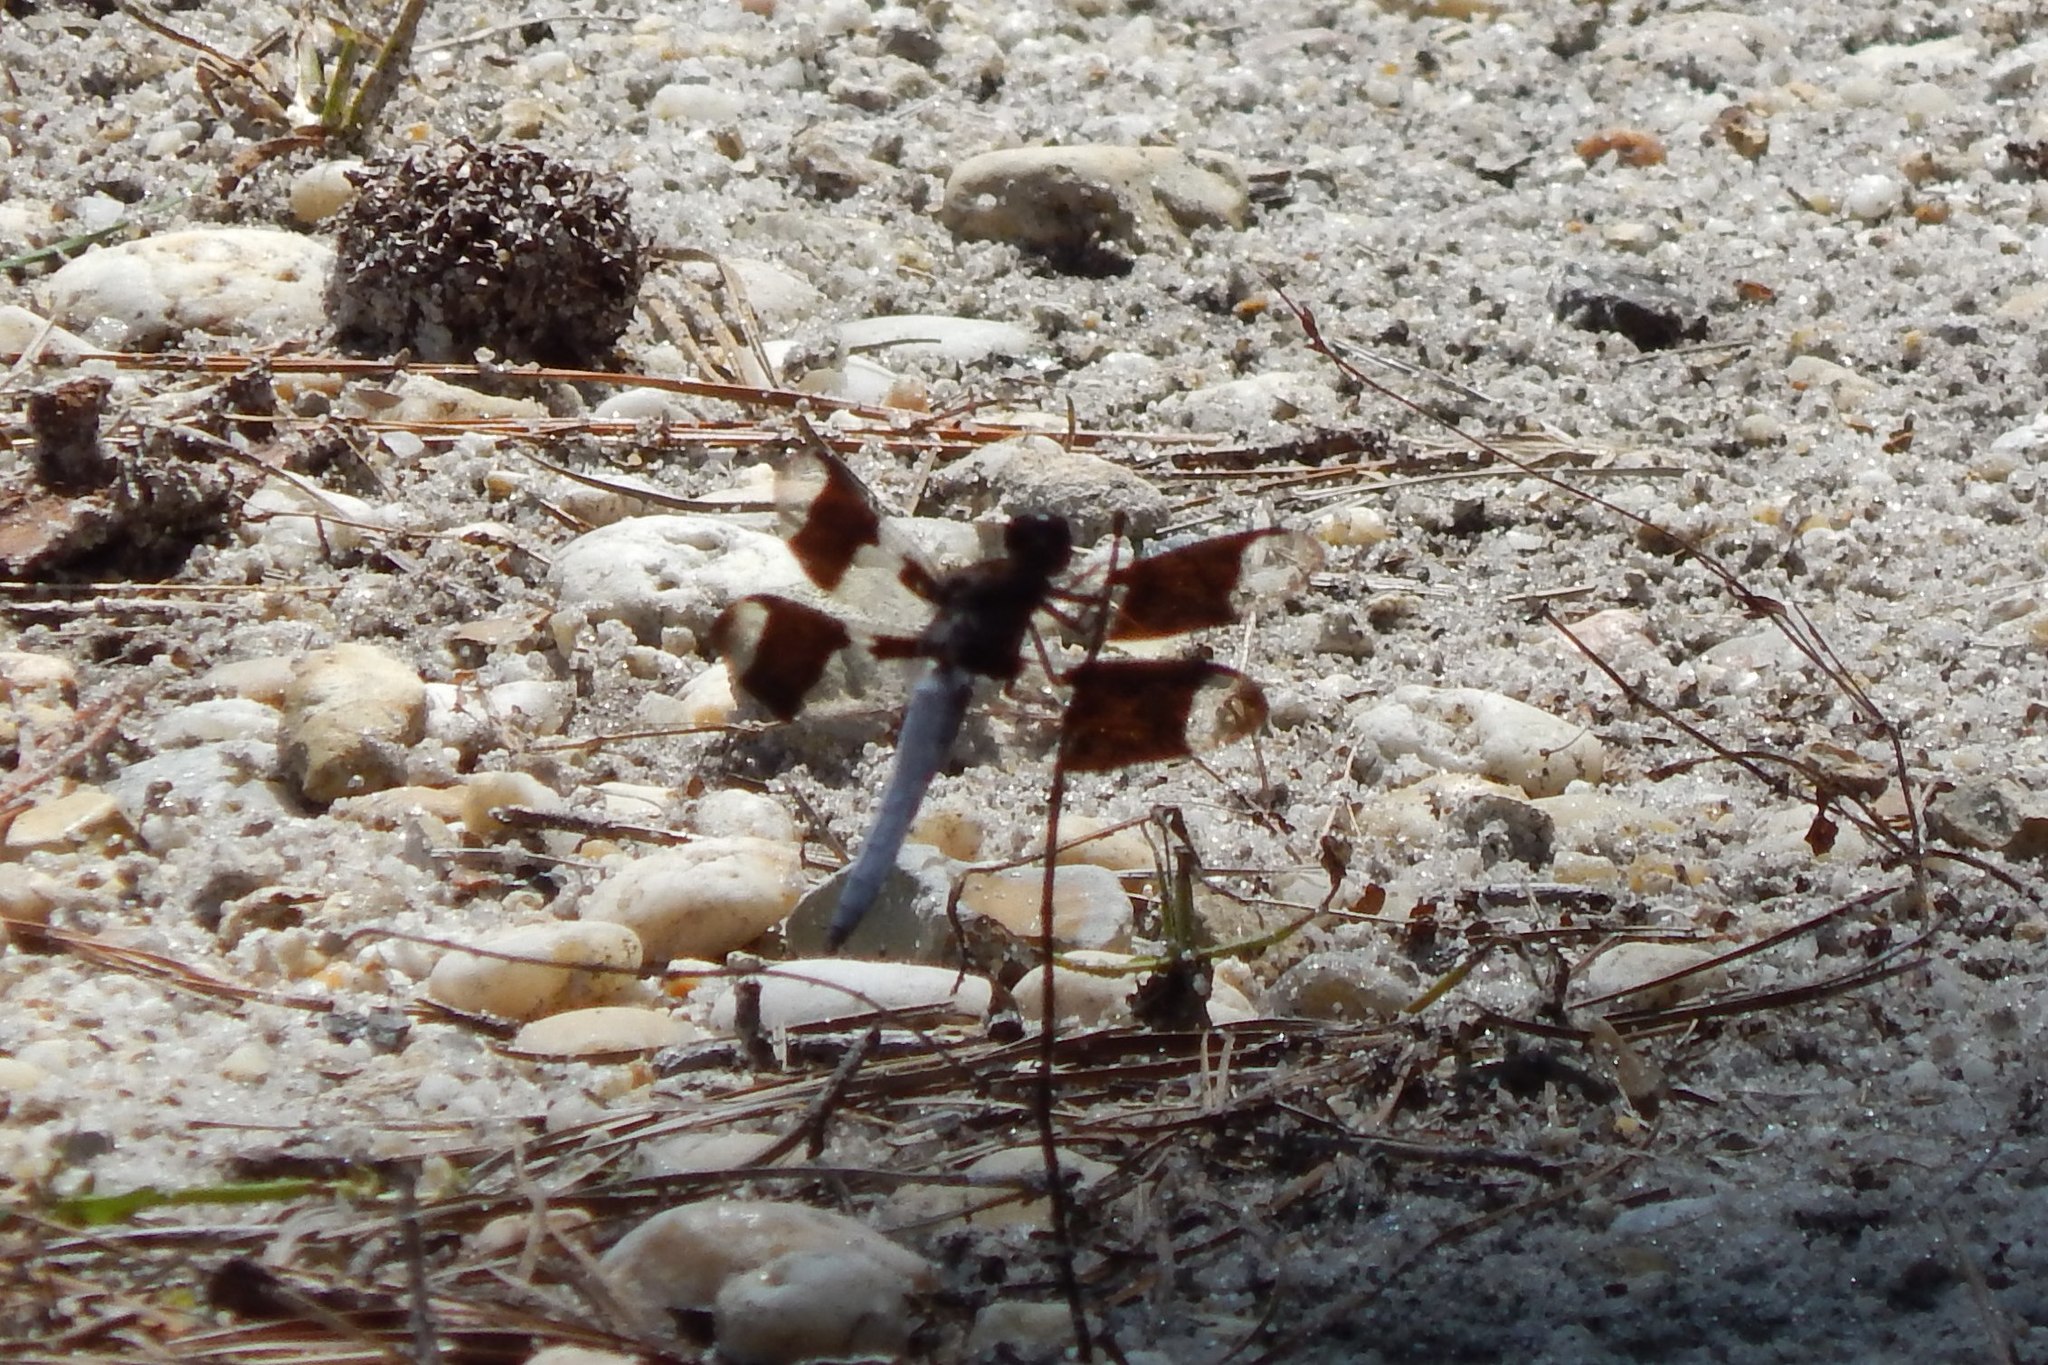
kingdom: Animalia
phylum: Arthropoda
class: Insecta
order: Odonata
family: Libellulidae
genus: Plathemis
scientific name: Plathemis lydia
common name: Common whitetail
